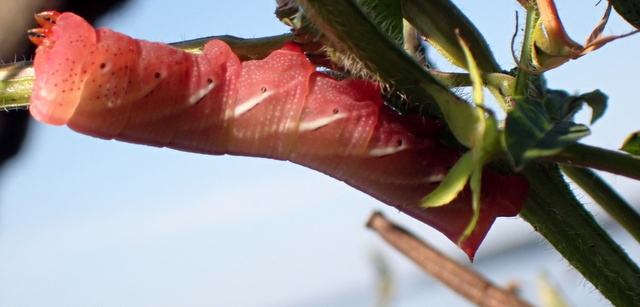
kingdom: Animalia
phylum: Arthropoda
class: Insecta
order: Lepidoptera
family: Sphingidae
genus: Eumorpha
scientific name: Eumorpha fasciatus
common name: Banded sphinx
